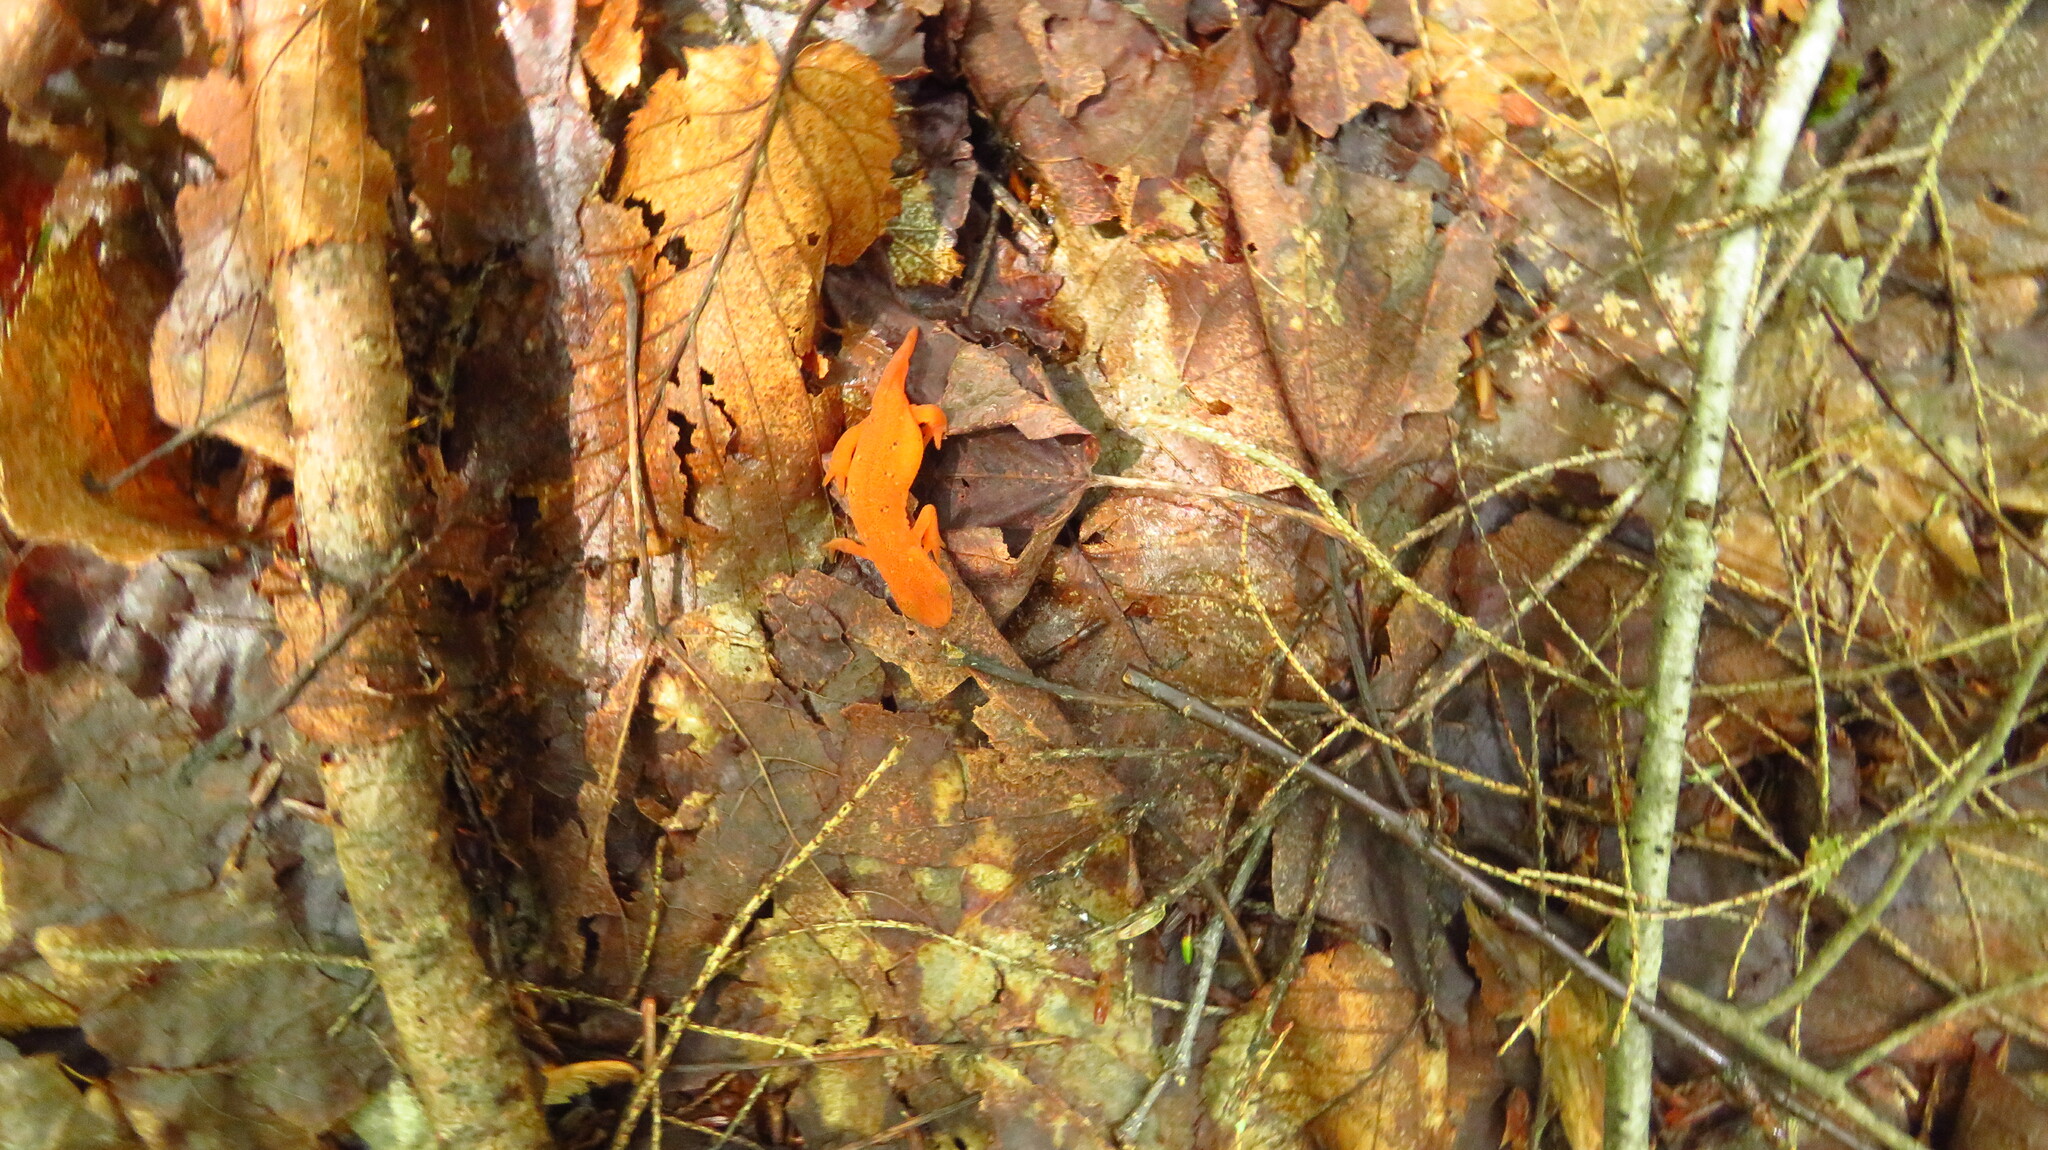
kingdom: Animalia
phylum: Chordata
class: Amphibia
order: Caudata
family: Salamandridae
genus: Notophthalmus
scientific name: Notophthalmus viridescens
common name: Eastern newt
